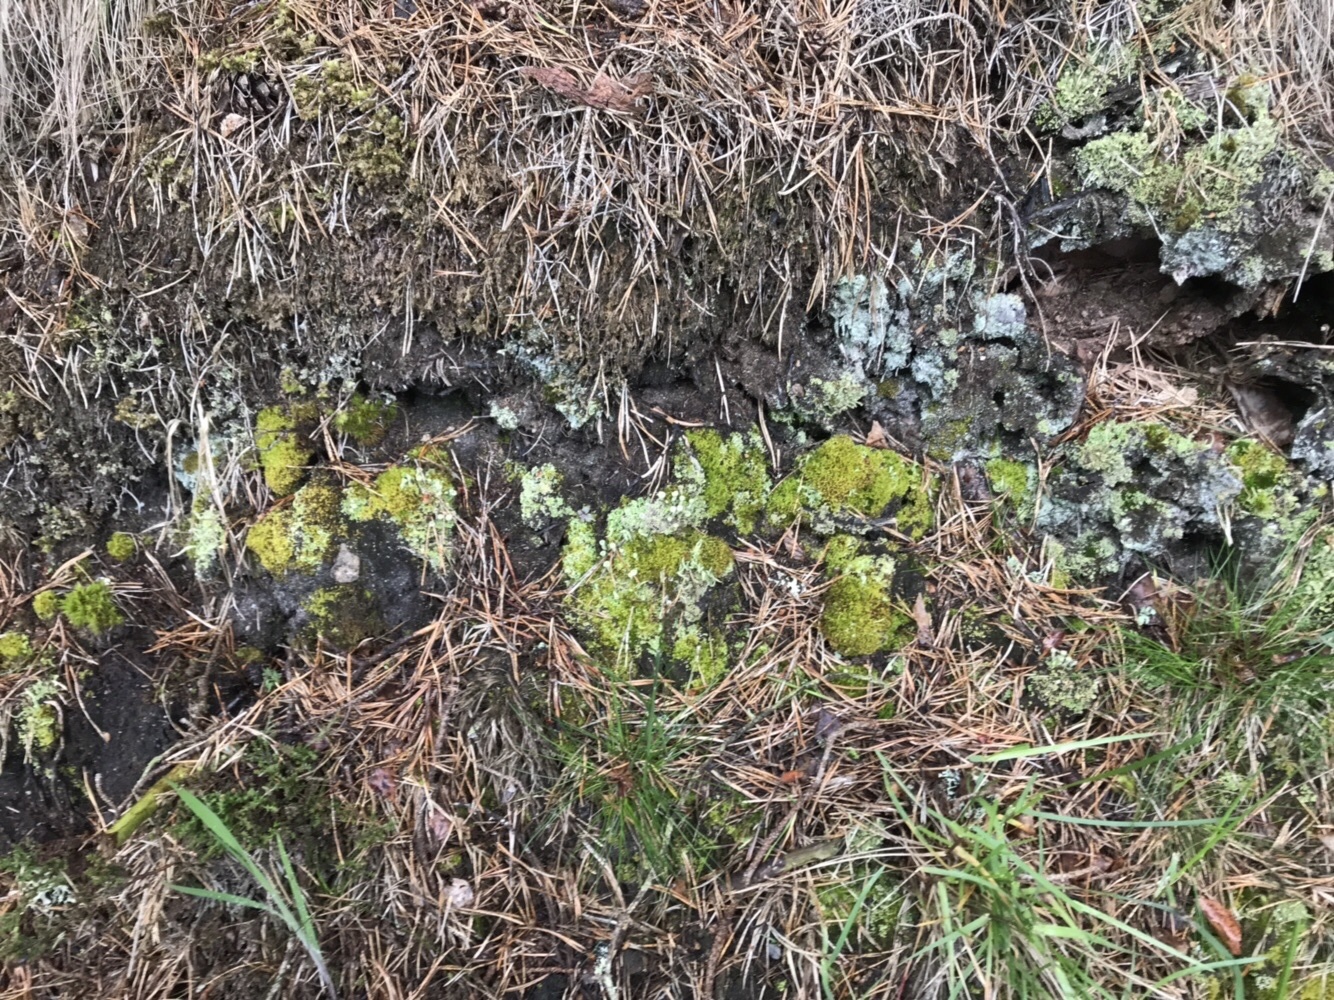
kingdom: Plantae
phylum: Bryophyta
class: Bryopsida
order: Aulacomniales
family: Aulacomniaceae
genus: Aulacomnium
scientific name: Aulacomnium androgynum
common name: Little groove moss
